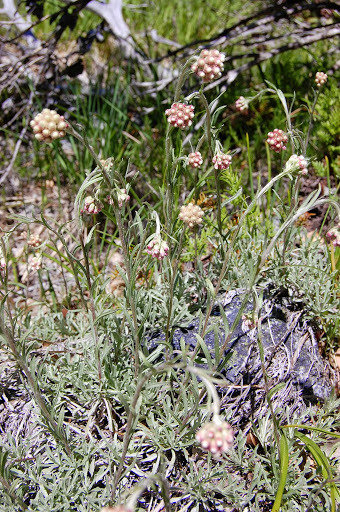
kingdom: Plantae
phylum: Tracheophyta
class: Magnoliopsida
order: Asterales
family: Asteraceae
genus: Antennaria
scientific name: Antennaria rosea
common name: Rosy pussytoes
